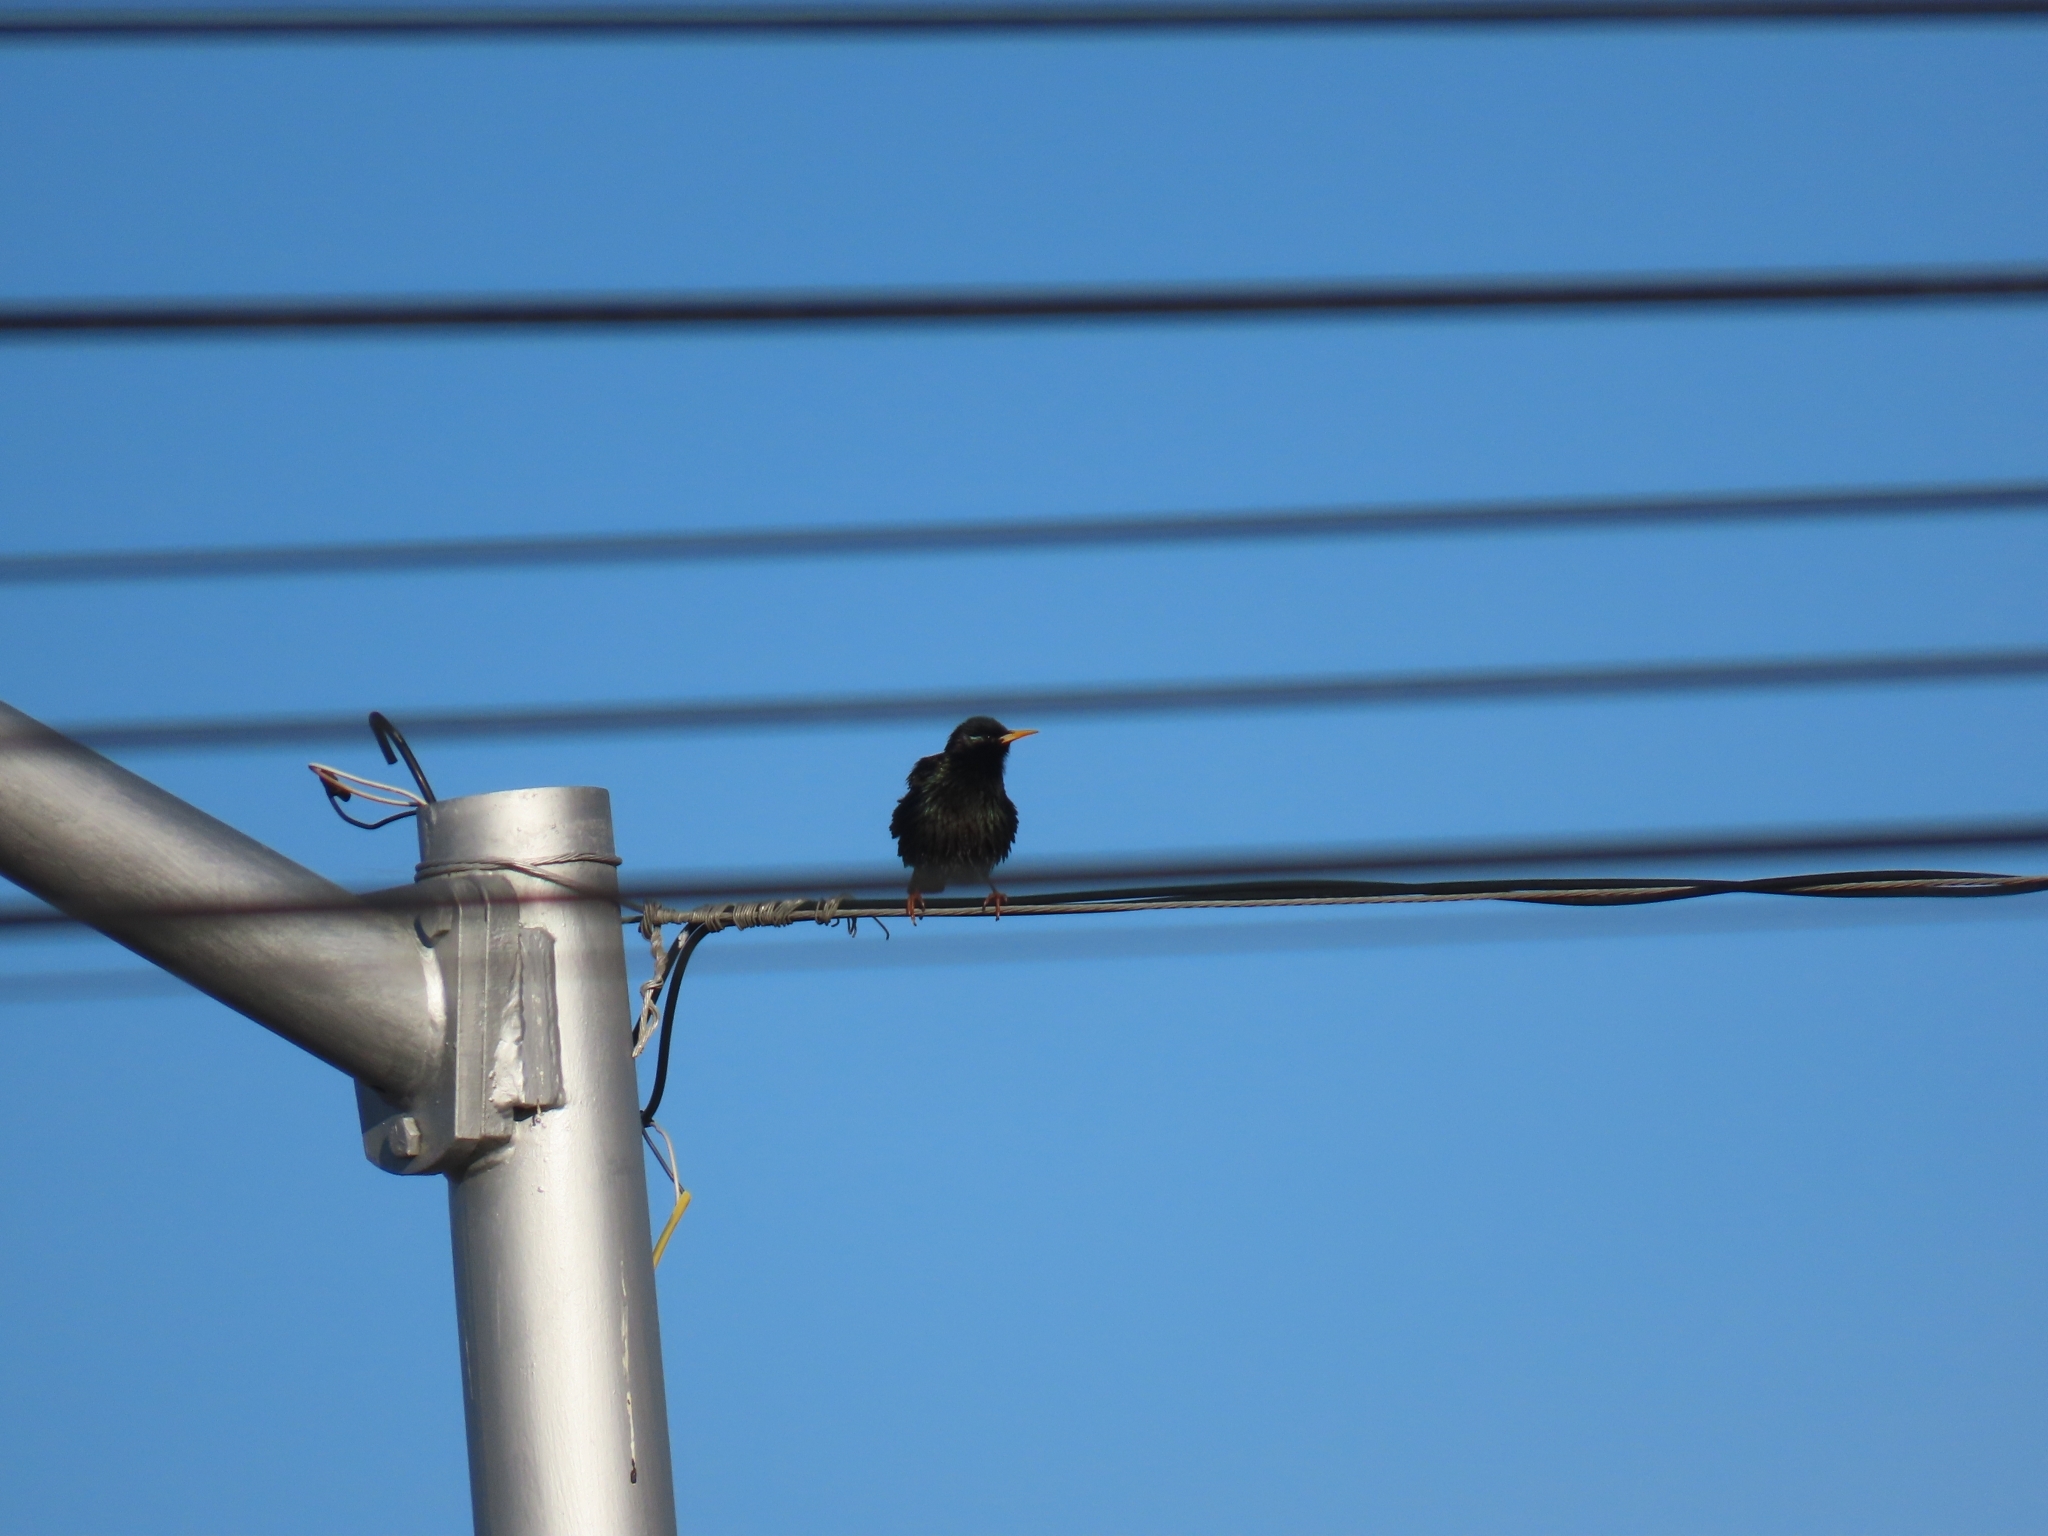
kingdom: Animalia
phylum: Chordata
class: Aves
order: Passeriformes
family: Sturnidae
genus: Sturnus
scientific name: Sturnus vulgaris
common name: Common starling
